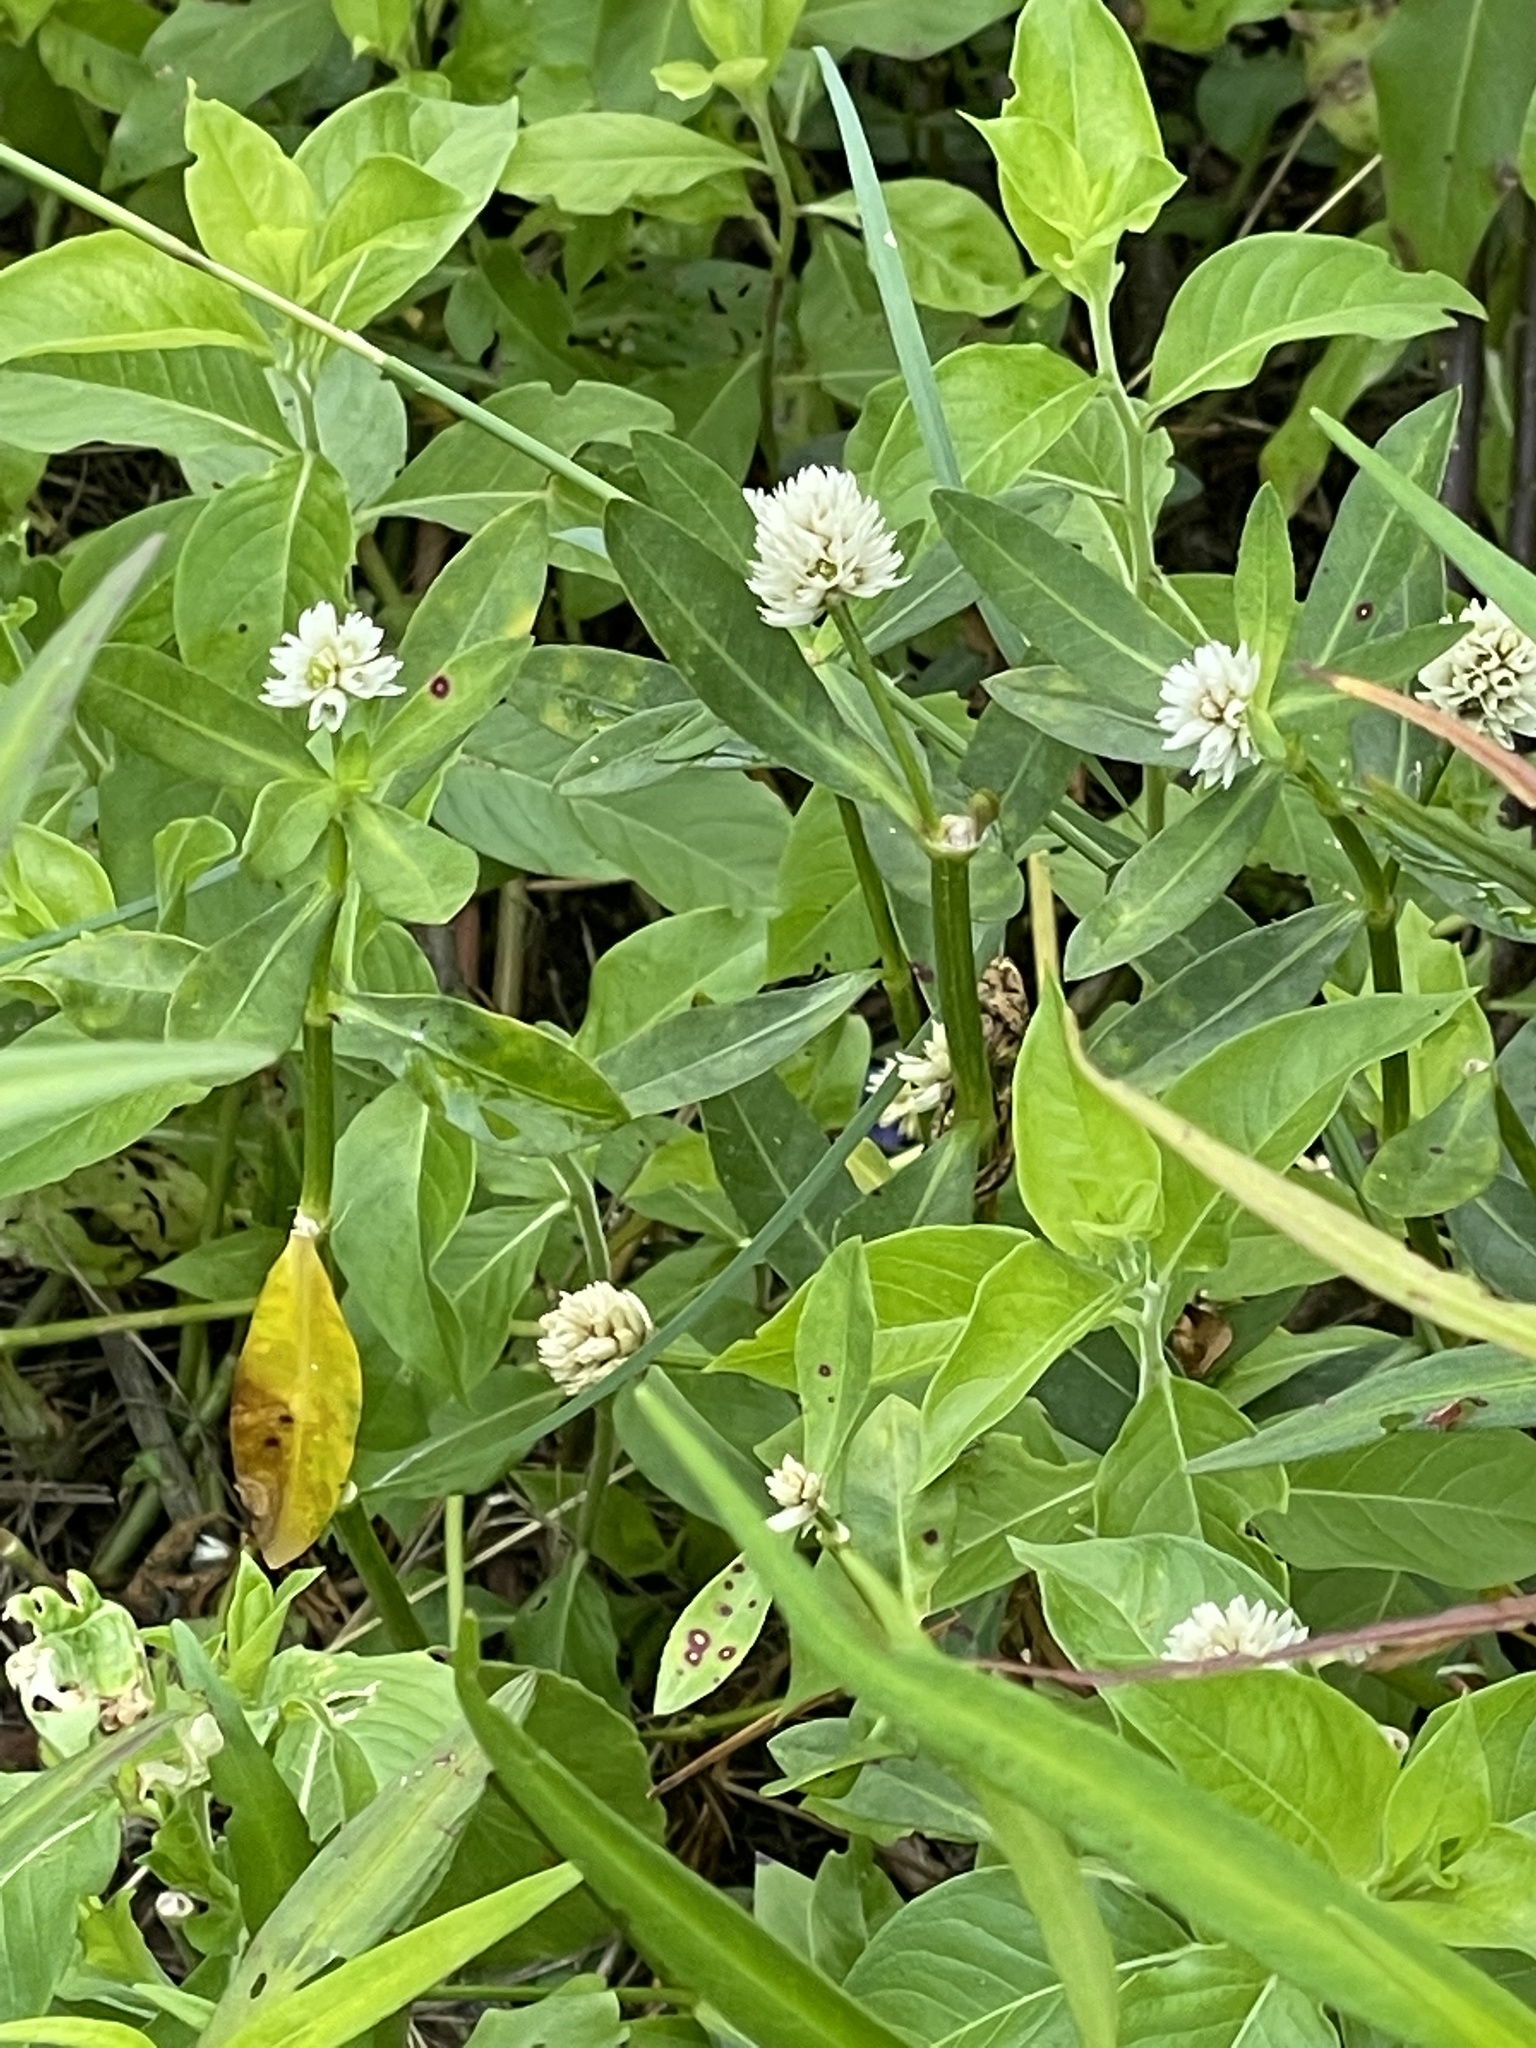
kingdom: Plantae
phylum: Tracheophyta
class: Magnoliopsida
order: Caryophyllales
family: Amaranthaceae
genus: Alternanthera
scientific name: Alternanthera philoxeroides
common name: Alligatorweed
